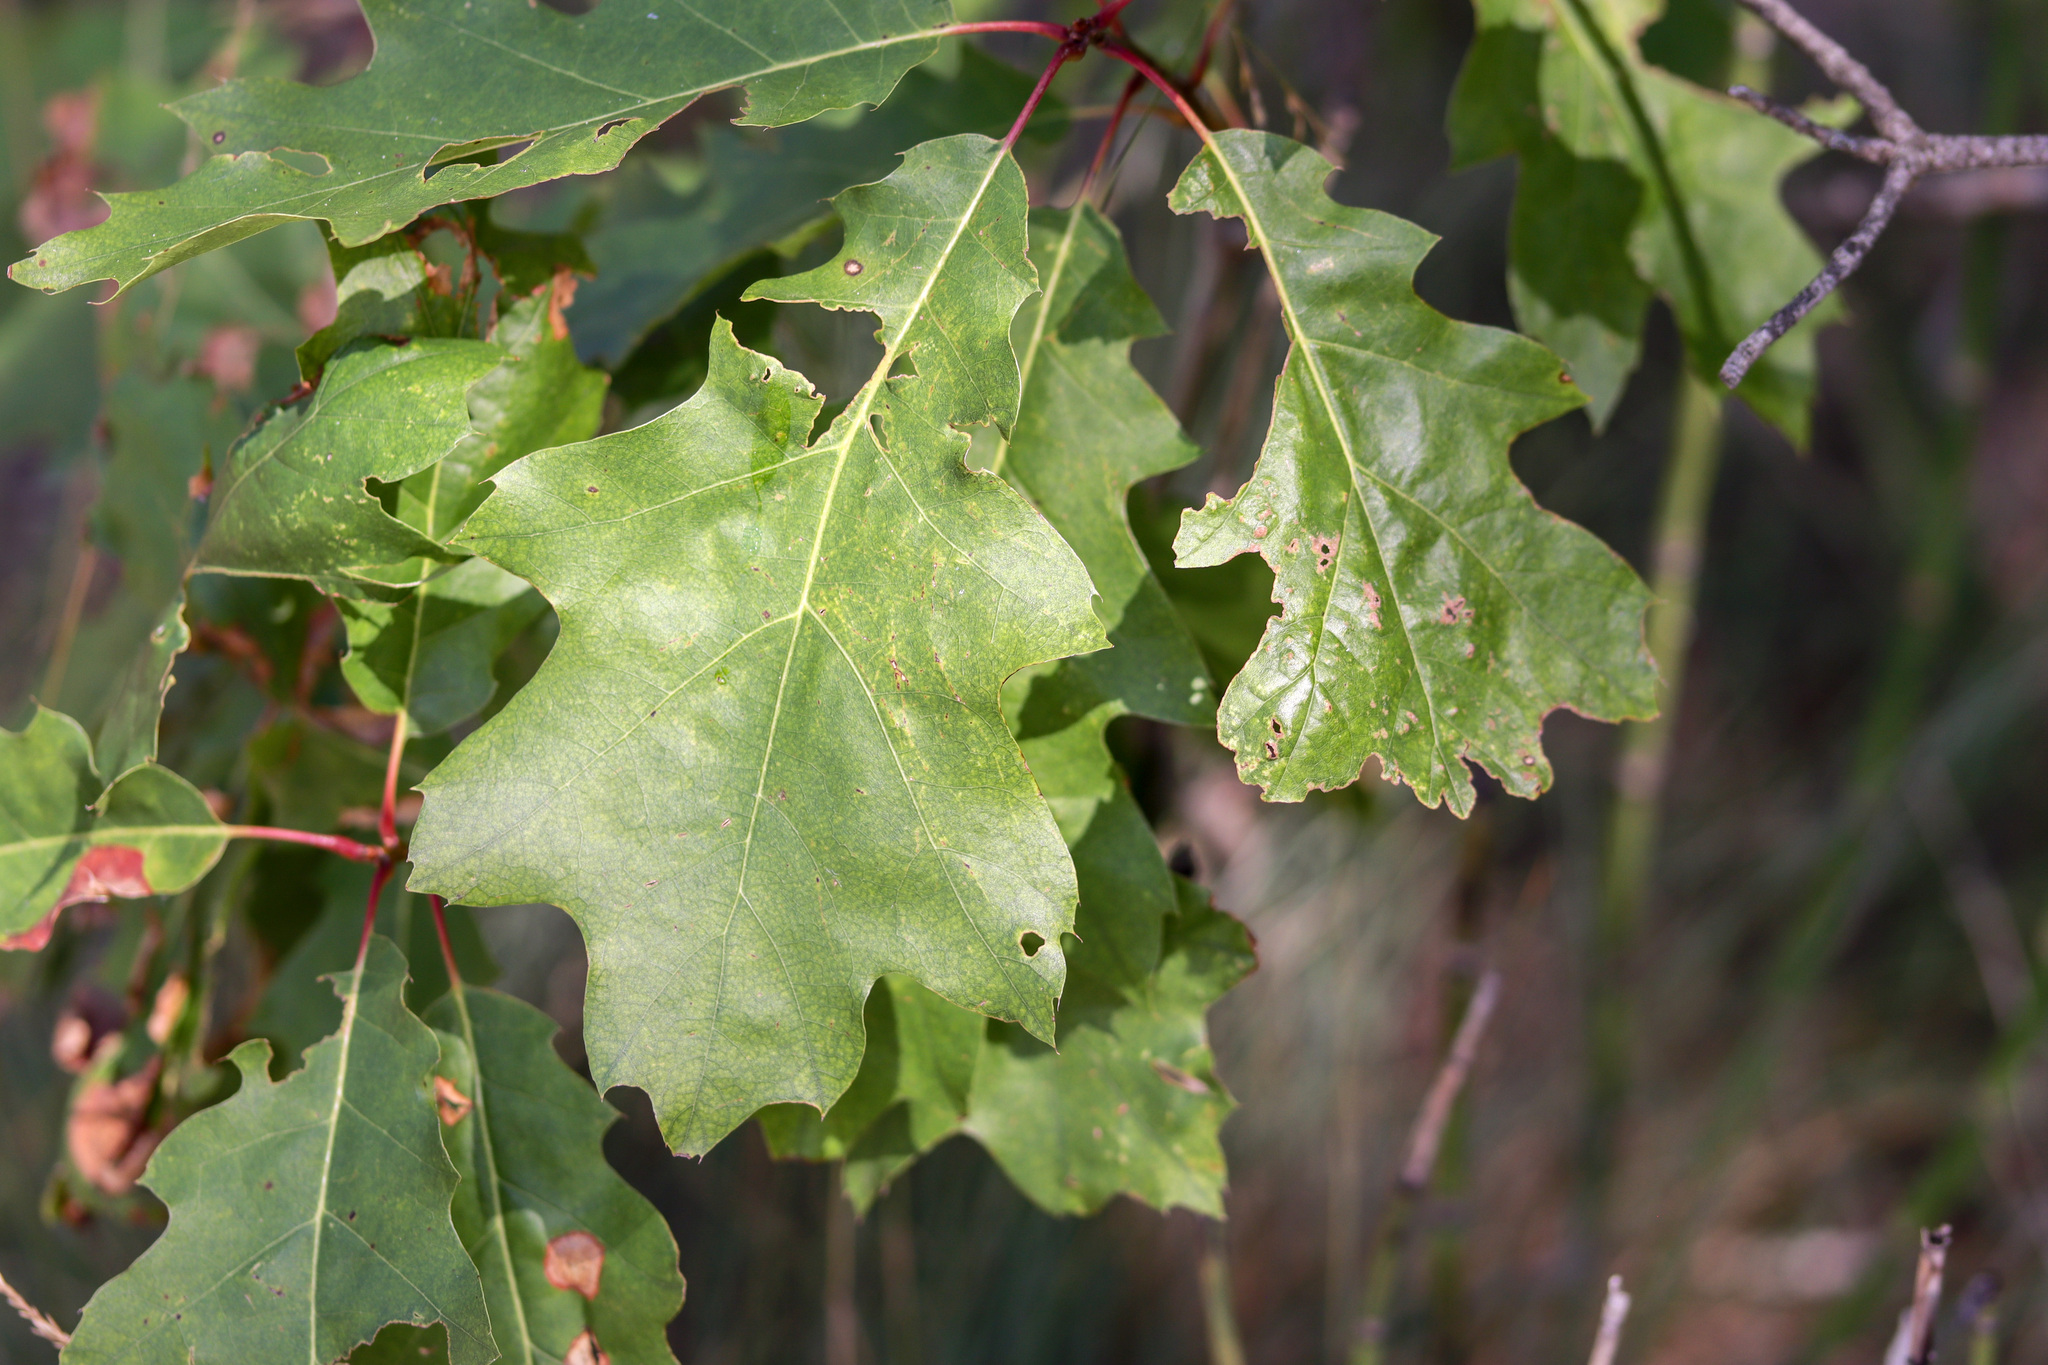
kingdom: Plantae
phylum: Tracheophyta
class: Magnoliopsida
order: Fagales
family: Fagaceae
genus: Quercus
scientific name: Quercus rubra
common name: Red oak
